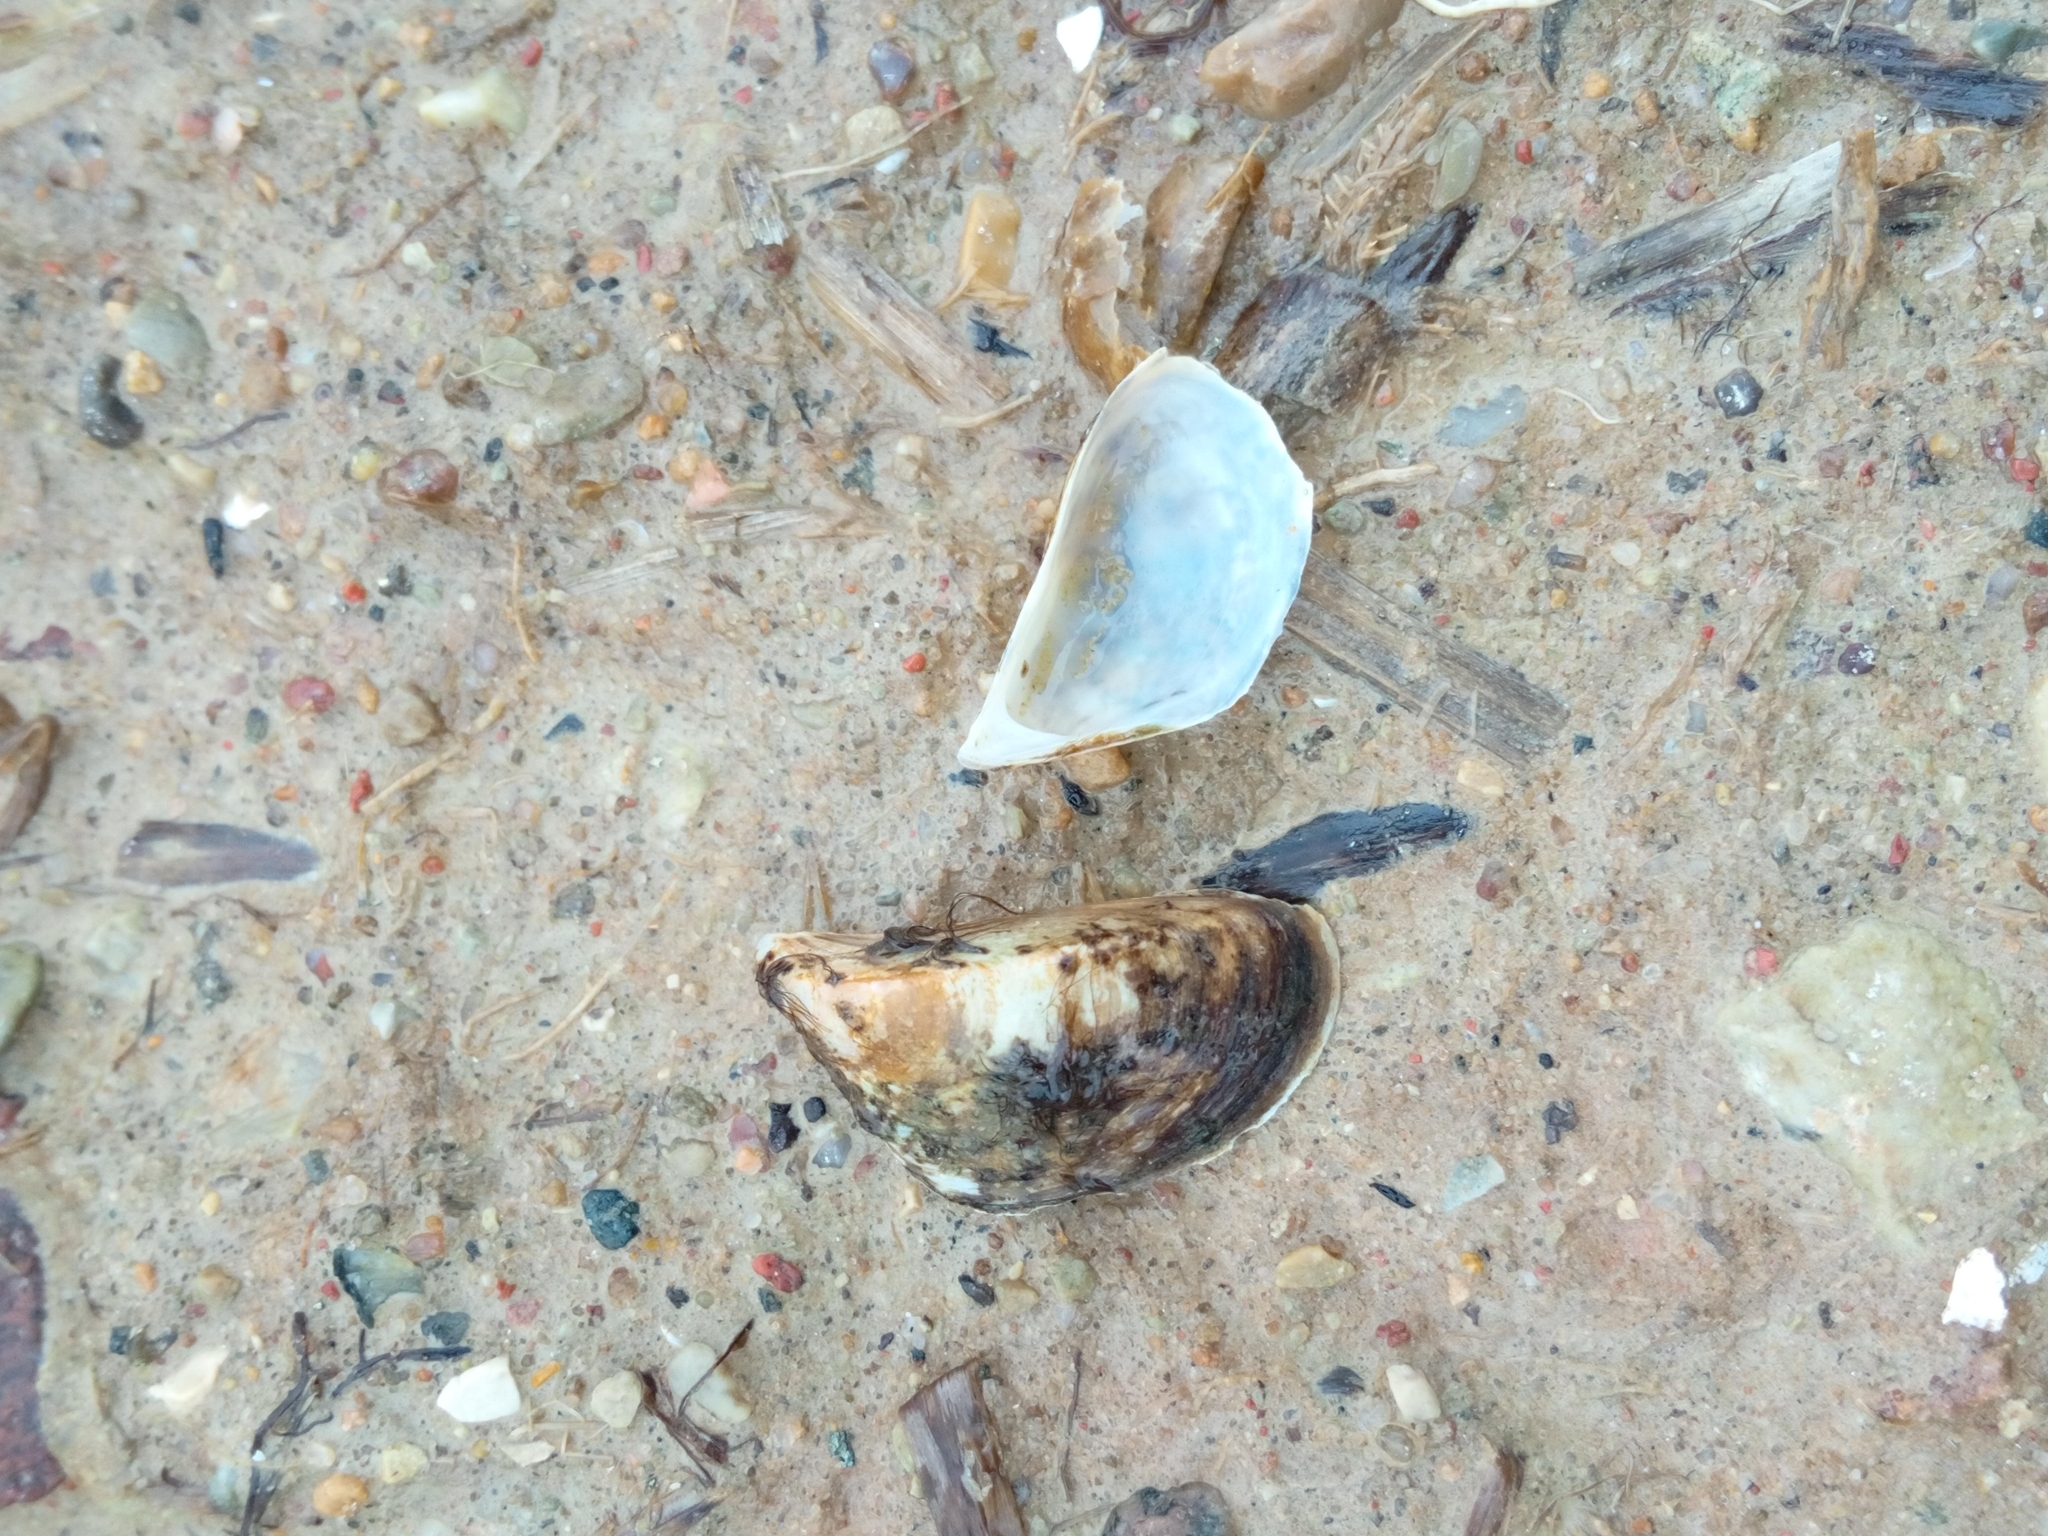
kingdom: Animalia
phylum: Mollusca
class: Bivalvia
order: Myida
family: Dreissenidae
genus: Dreissena
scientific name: Dreissena polymorpha
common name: Zebra mussel
